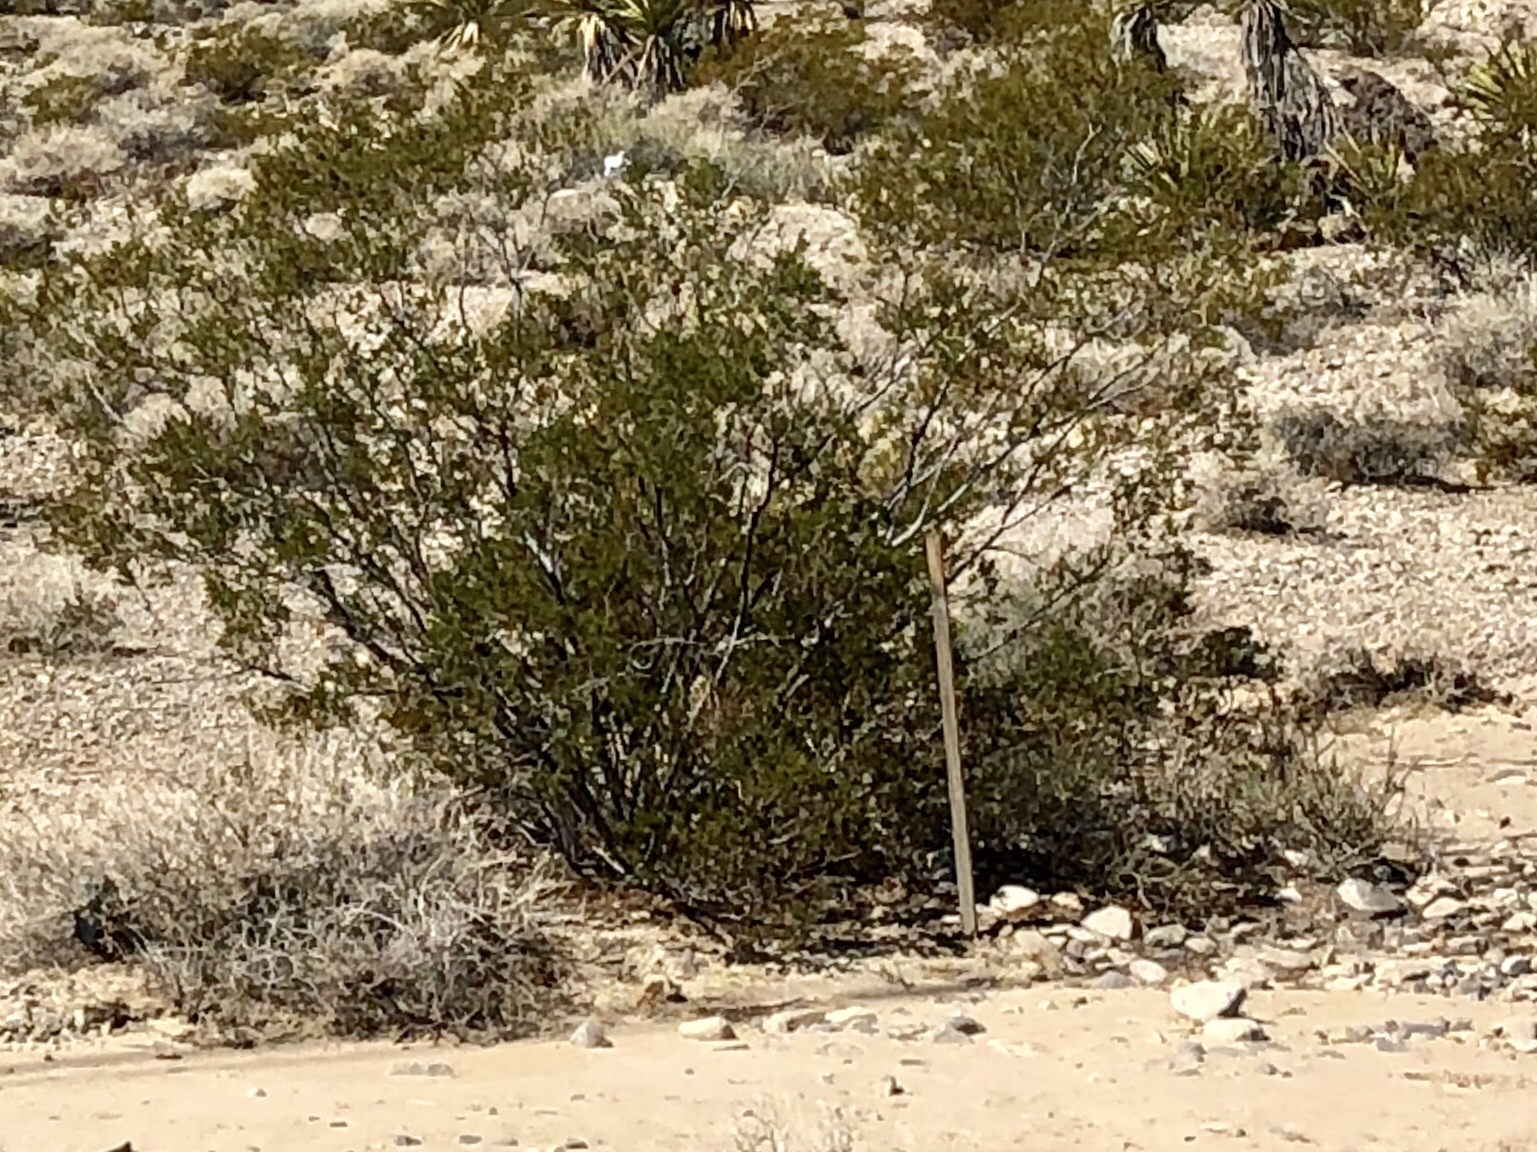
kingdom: Plantae
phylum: Tracheophyta
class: Magnoliopsida
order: Zygophyllales
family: Zygophyllaceae
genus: Larrea
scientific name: Larrea tridentata
